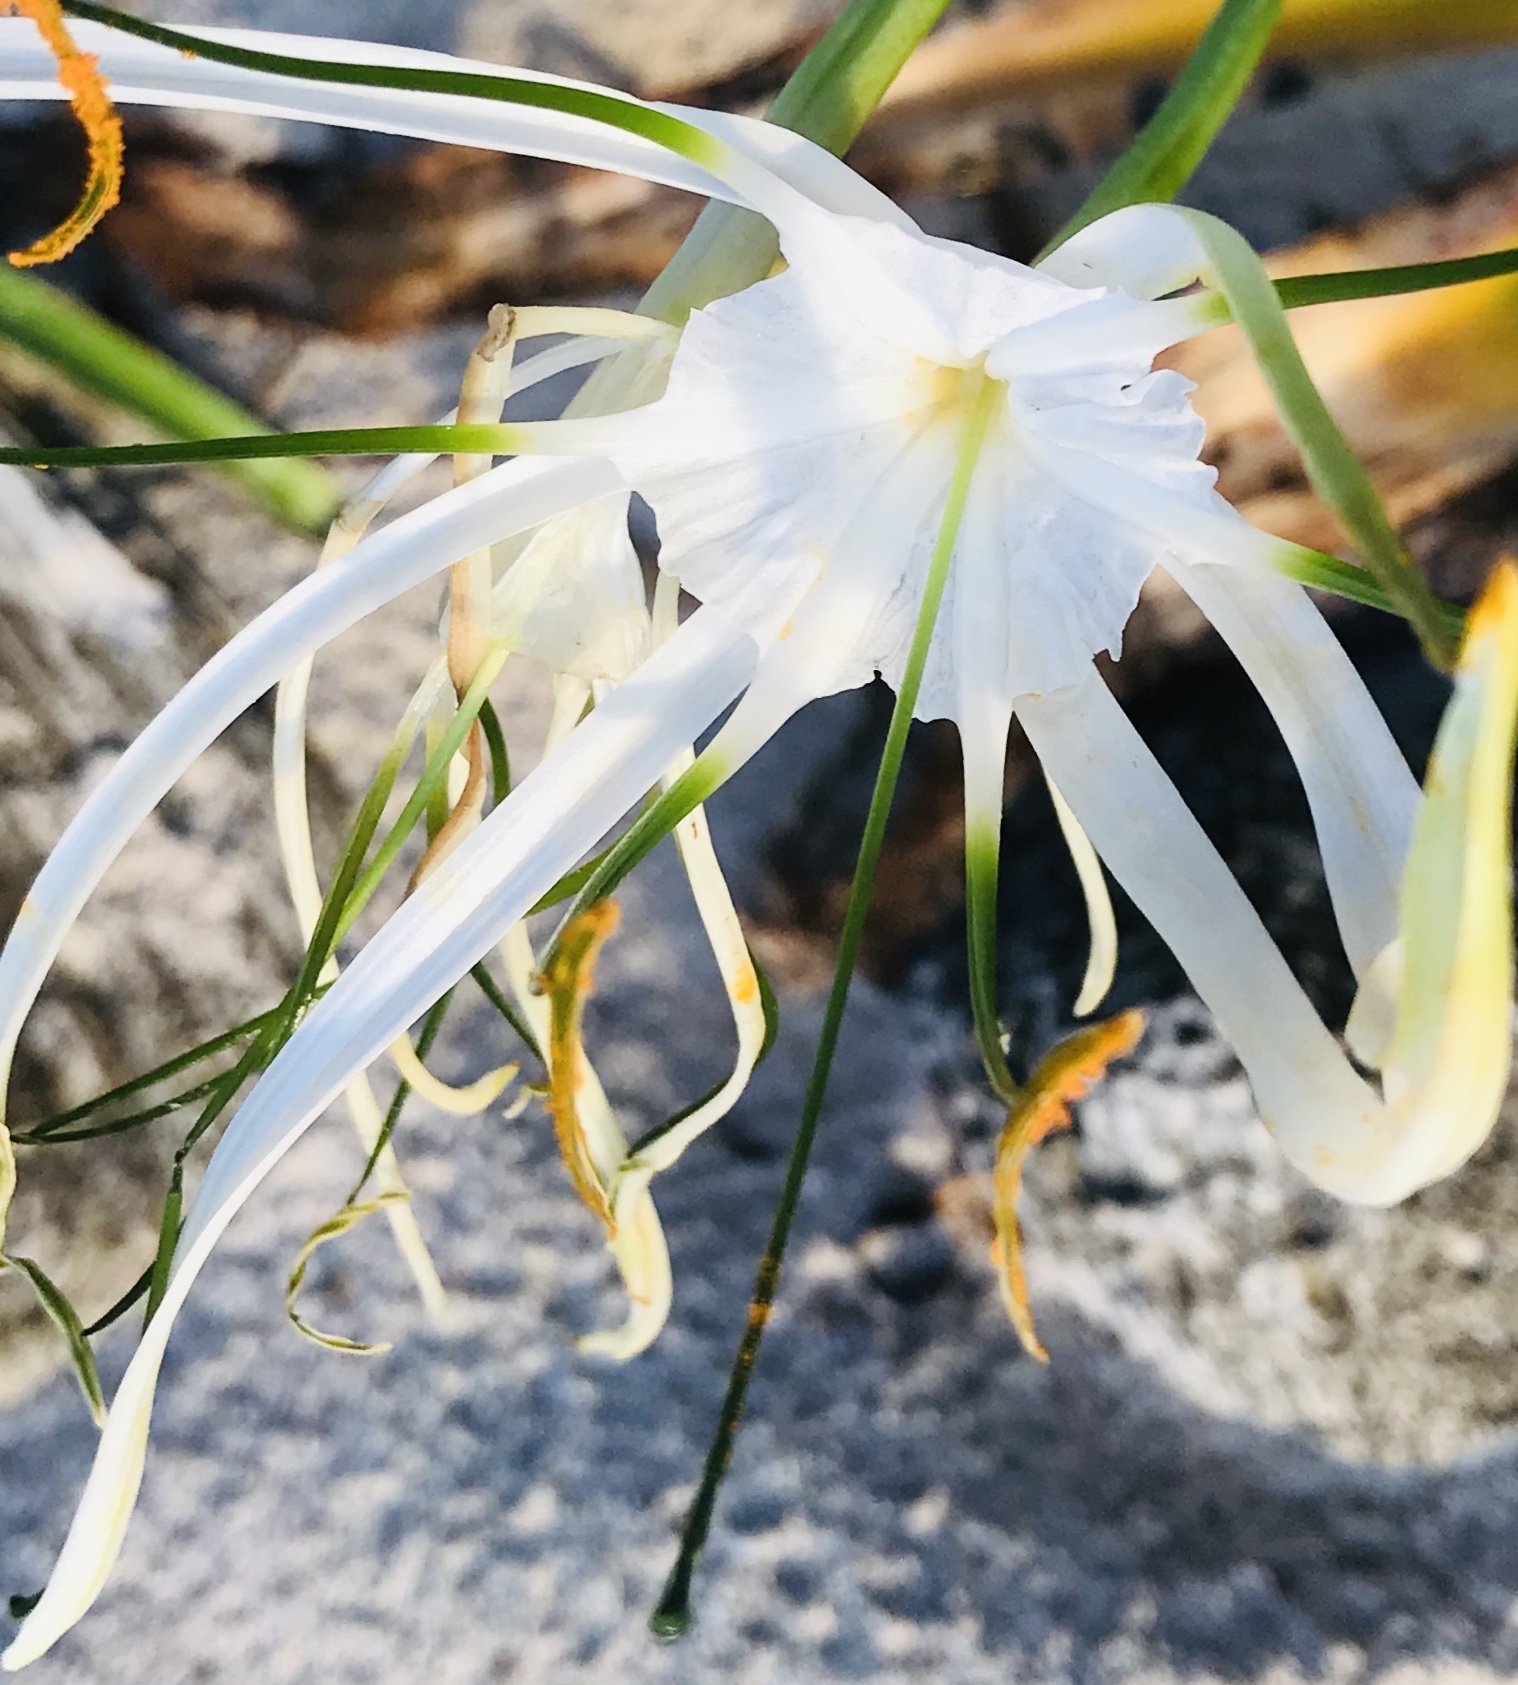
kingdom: Plantae
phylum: Tracheophyta
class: Liliopsida
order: Asparagales
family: Amaryllidaceae
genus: Hymenocallis
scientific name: Hymenocallis littoralis
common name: Beach spiderlily
